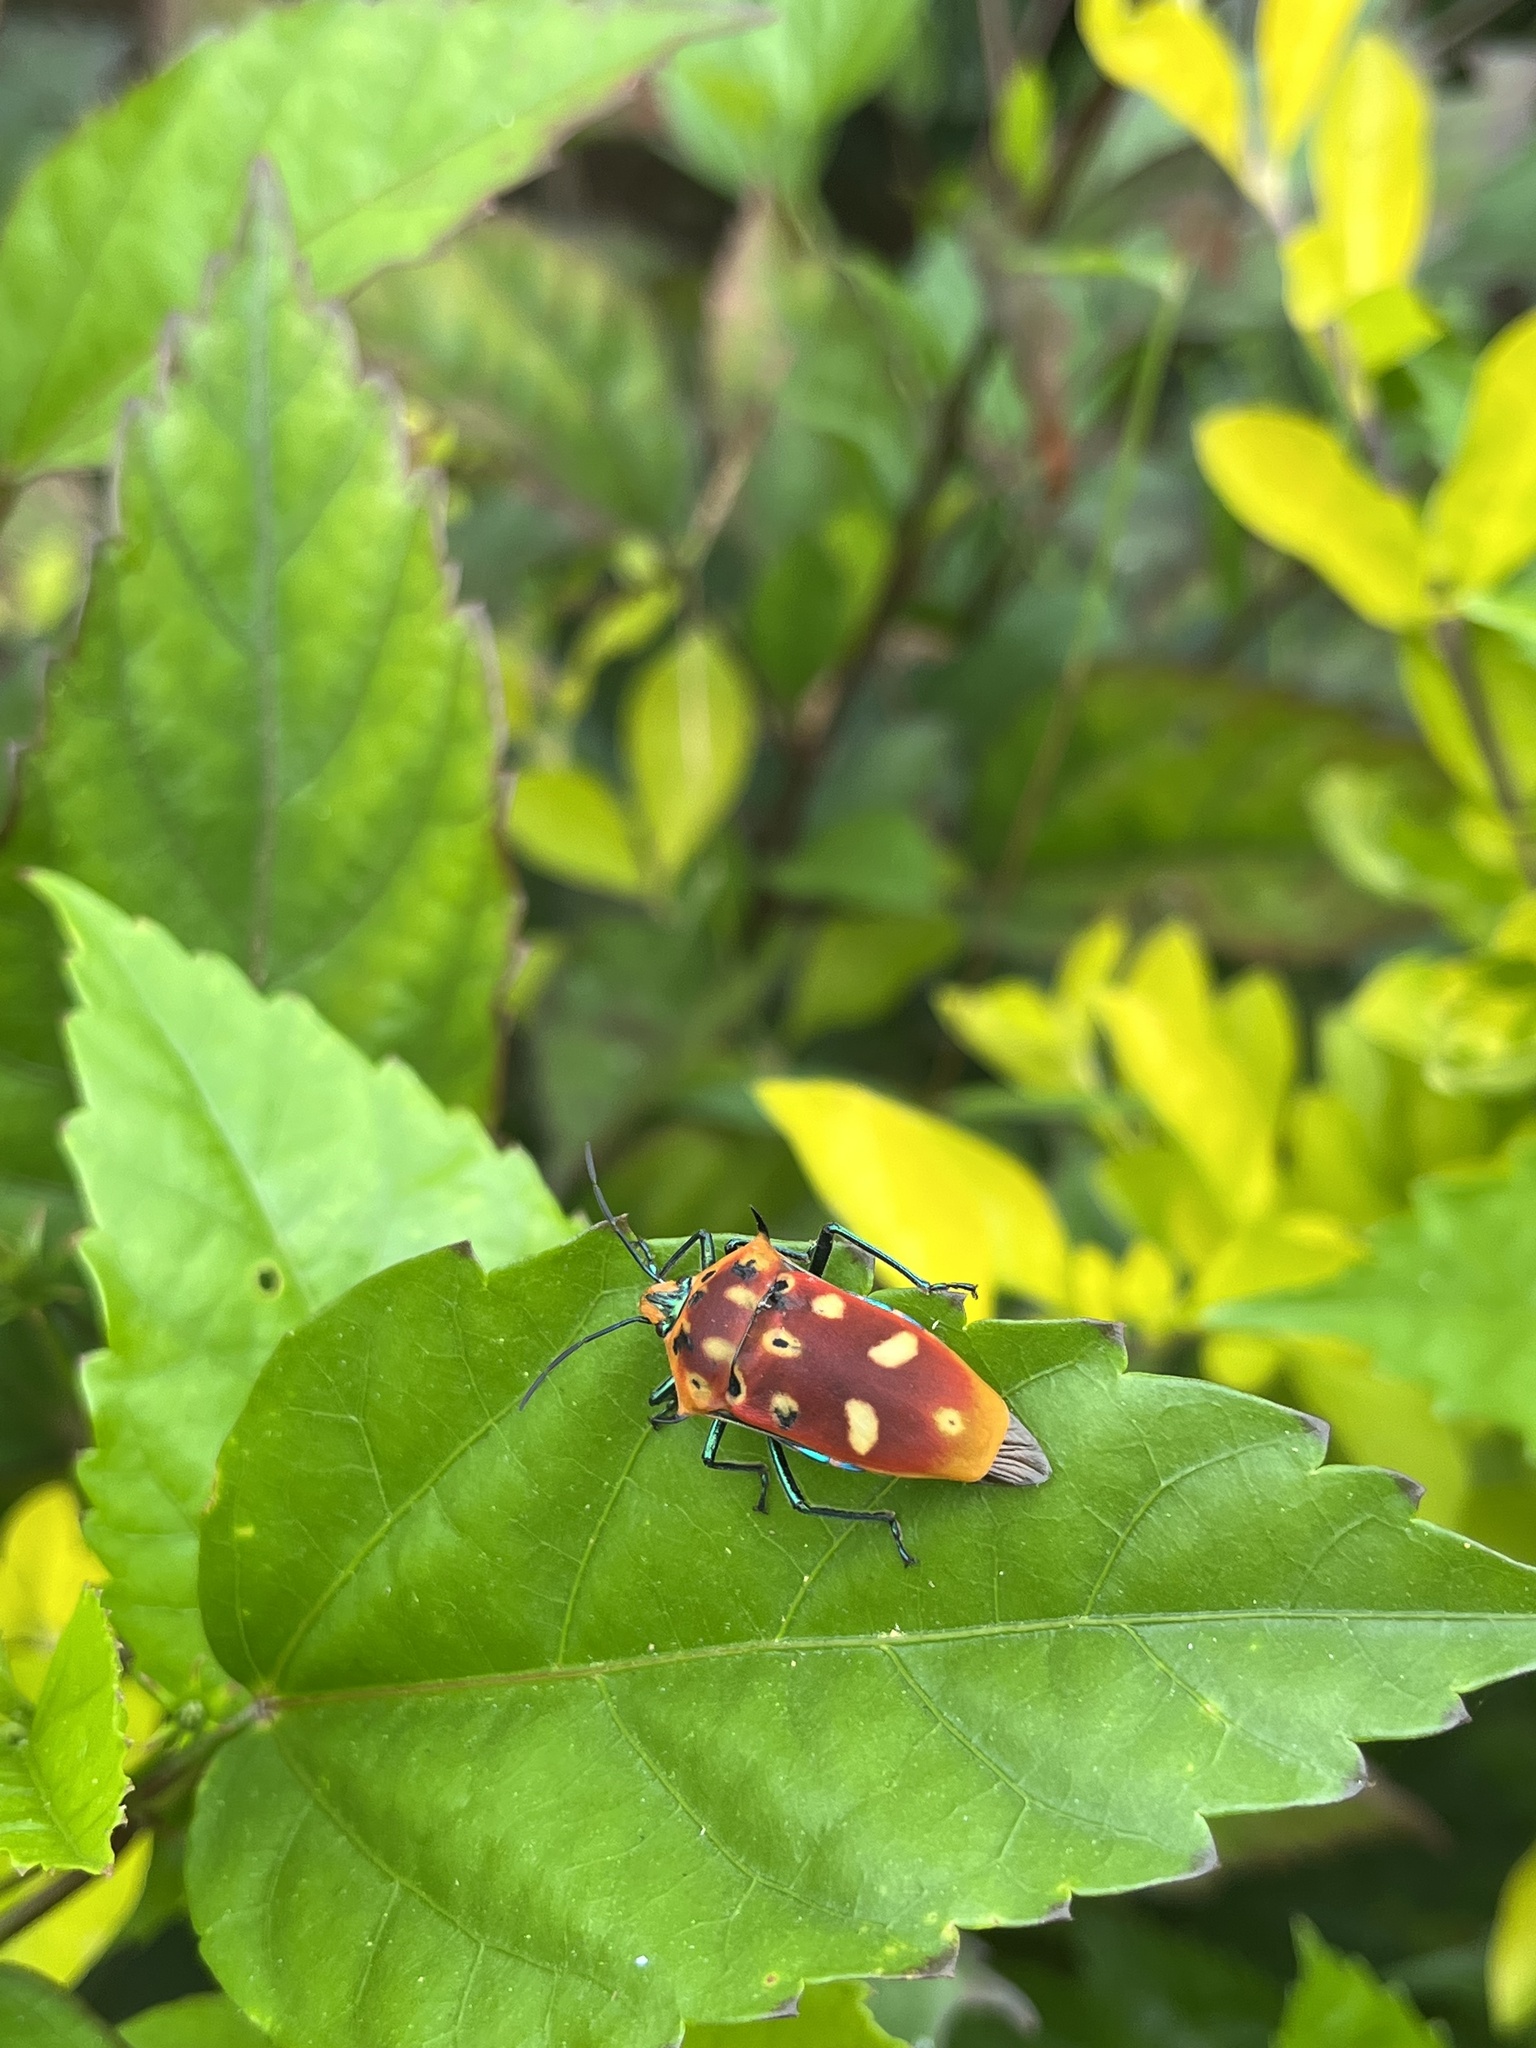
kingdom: Animalia
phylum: Arthropoda
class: Insecta
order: Hemiptera
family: Scutelleridae
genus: Cantao
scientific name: Cantao ocellatus
